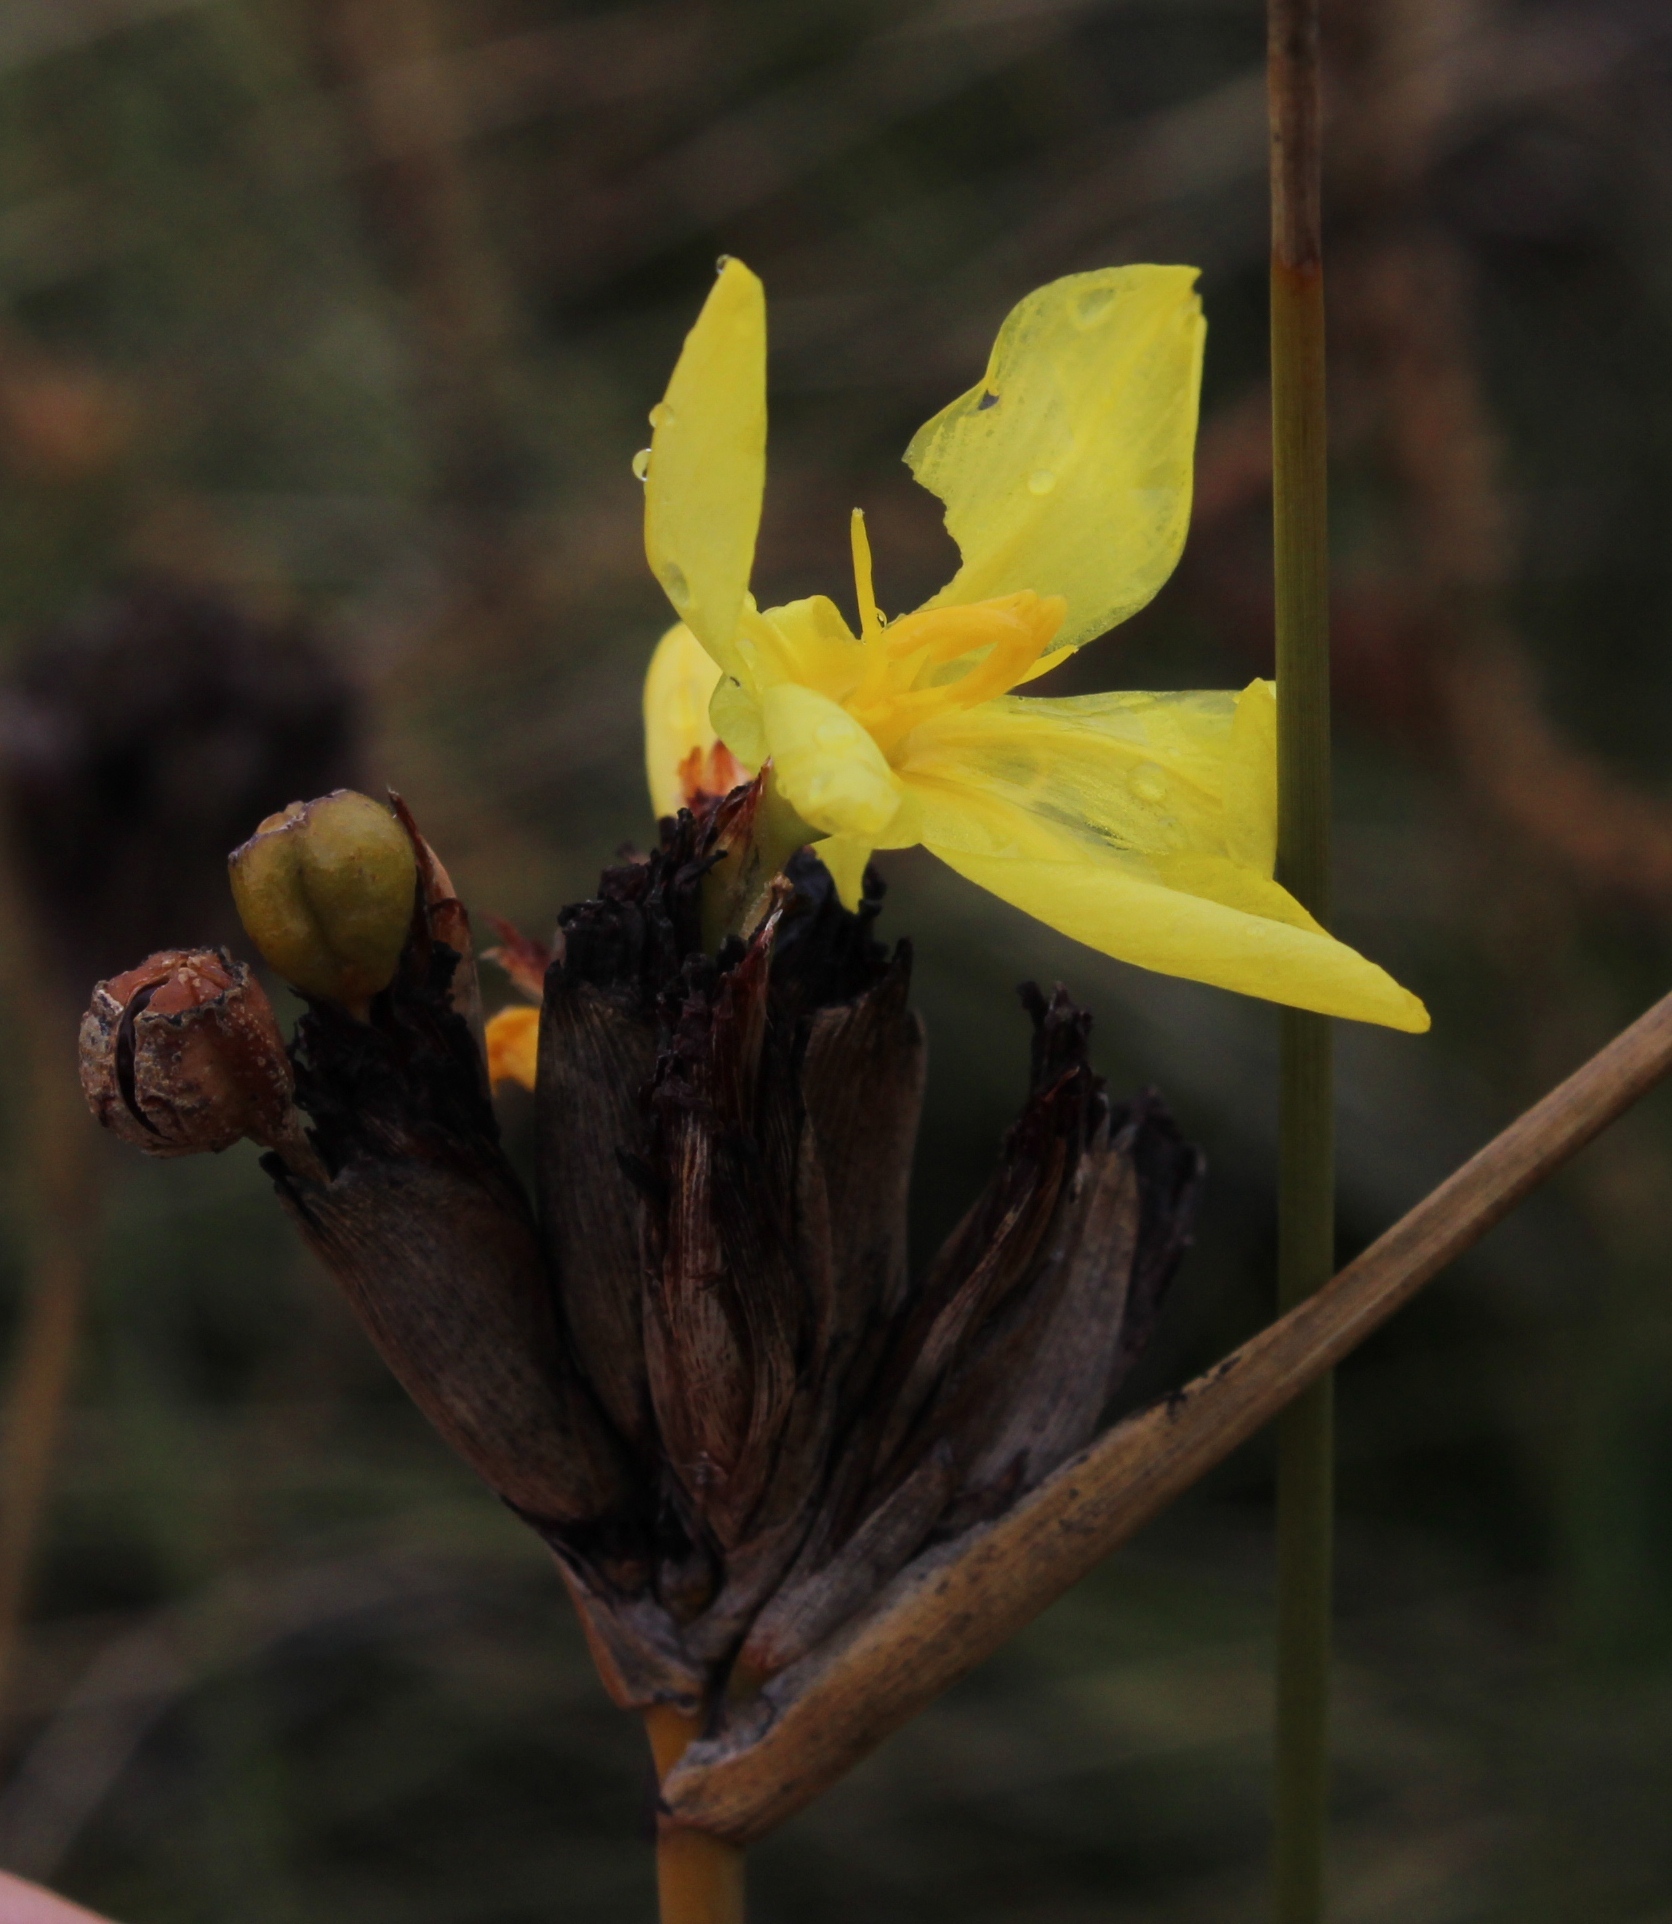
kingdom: Plantae
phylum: Tracheophyta
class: Liliopsida
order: Asparagales
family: Iridaceae
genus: Bobartia
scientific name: Bobartia indica
